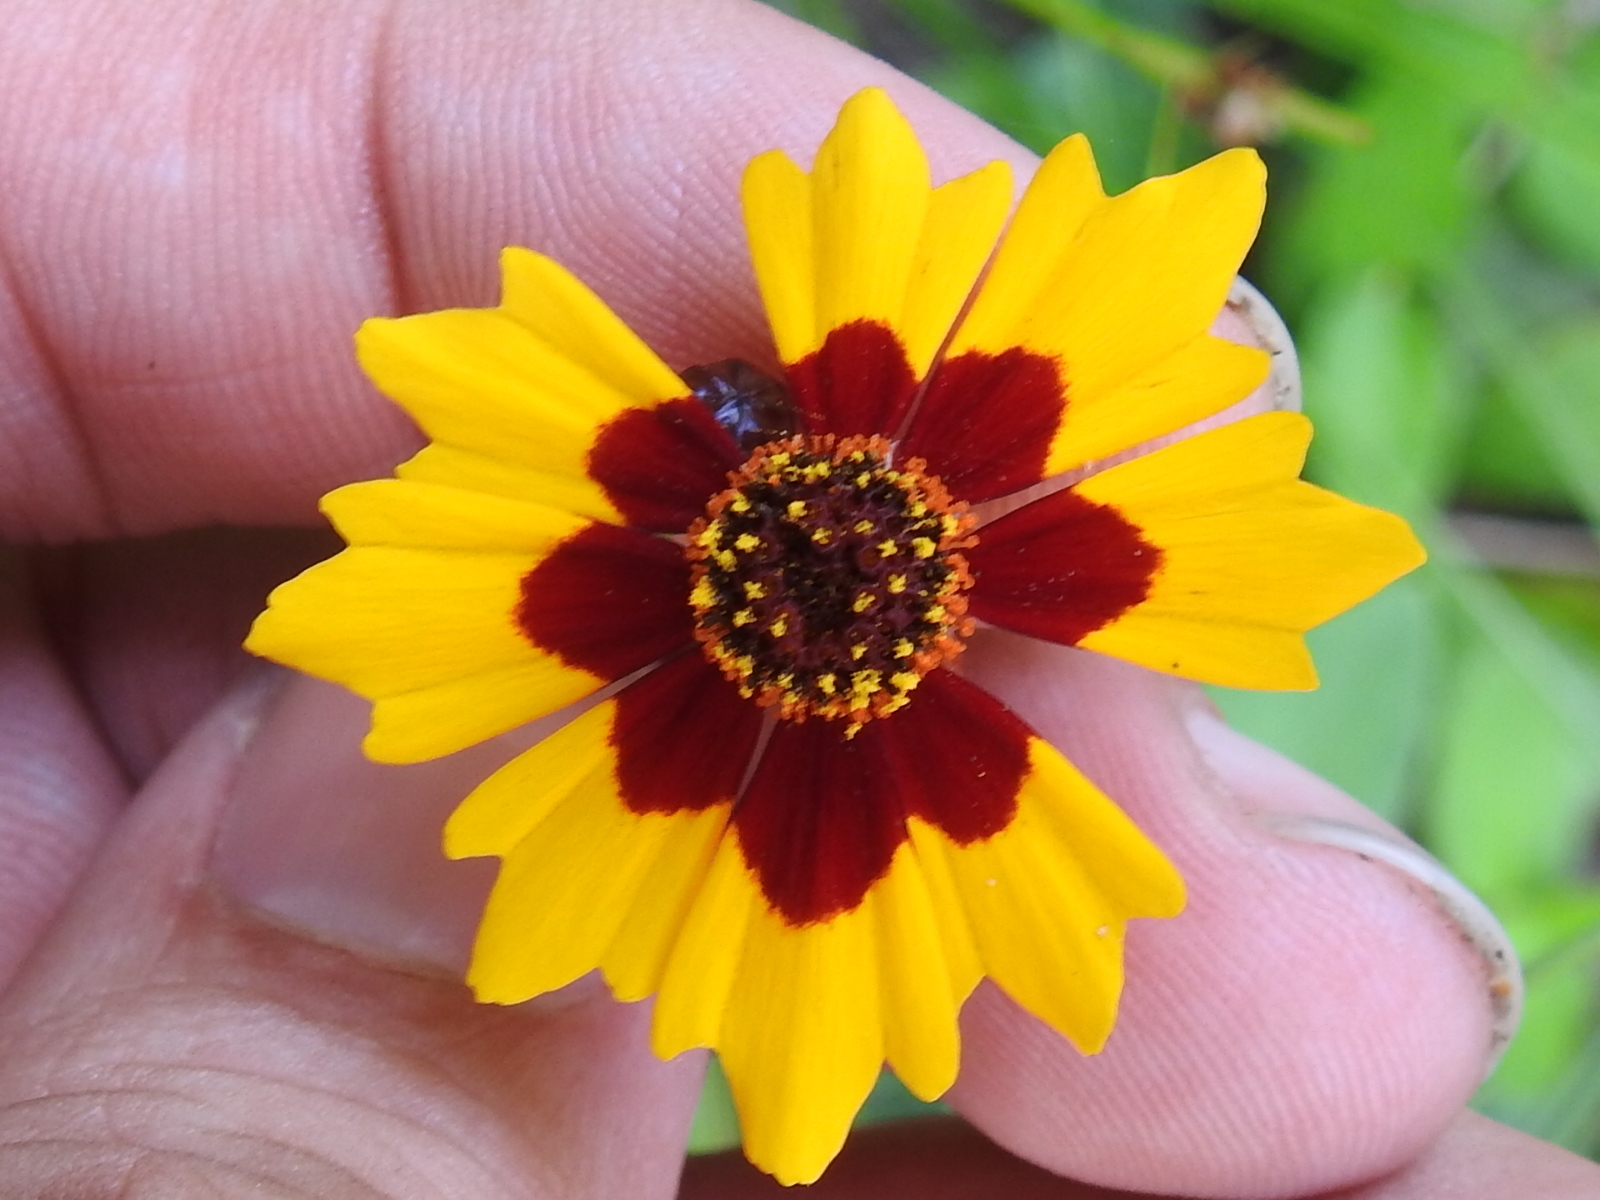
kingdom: Plantae
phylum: Tracheophyta
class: Magnoliopsida
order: Asterales
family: Asteraceae
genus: Coreopsis
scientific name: Coreopsis tinctoria
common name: Garden tickseed
